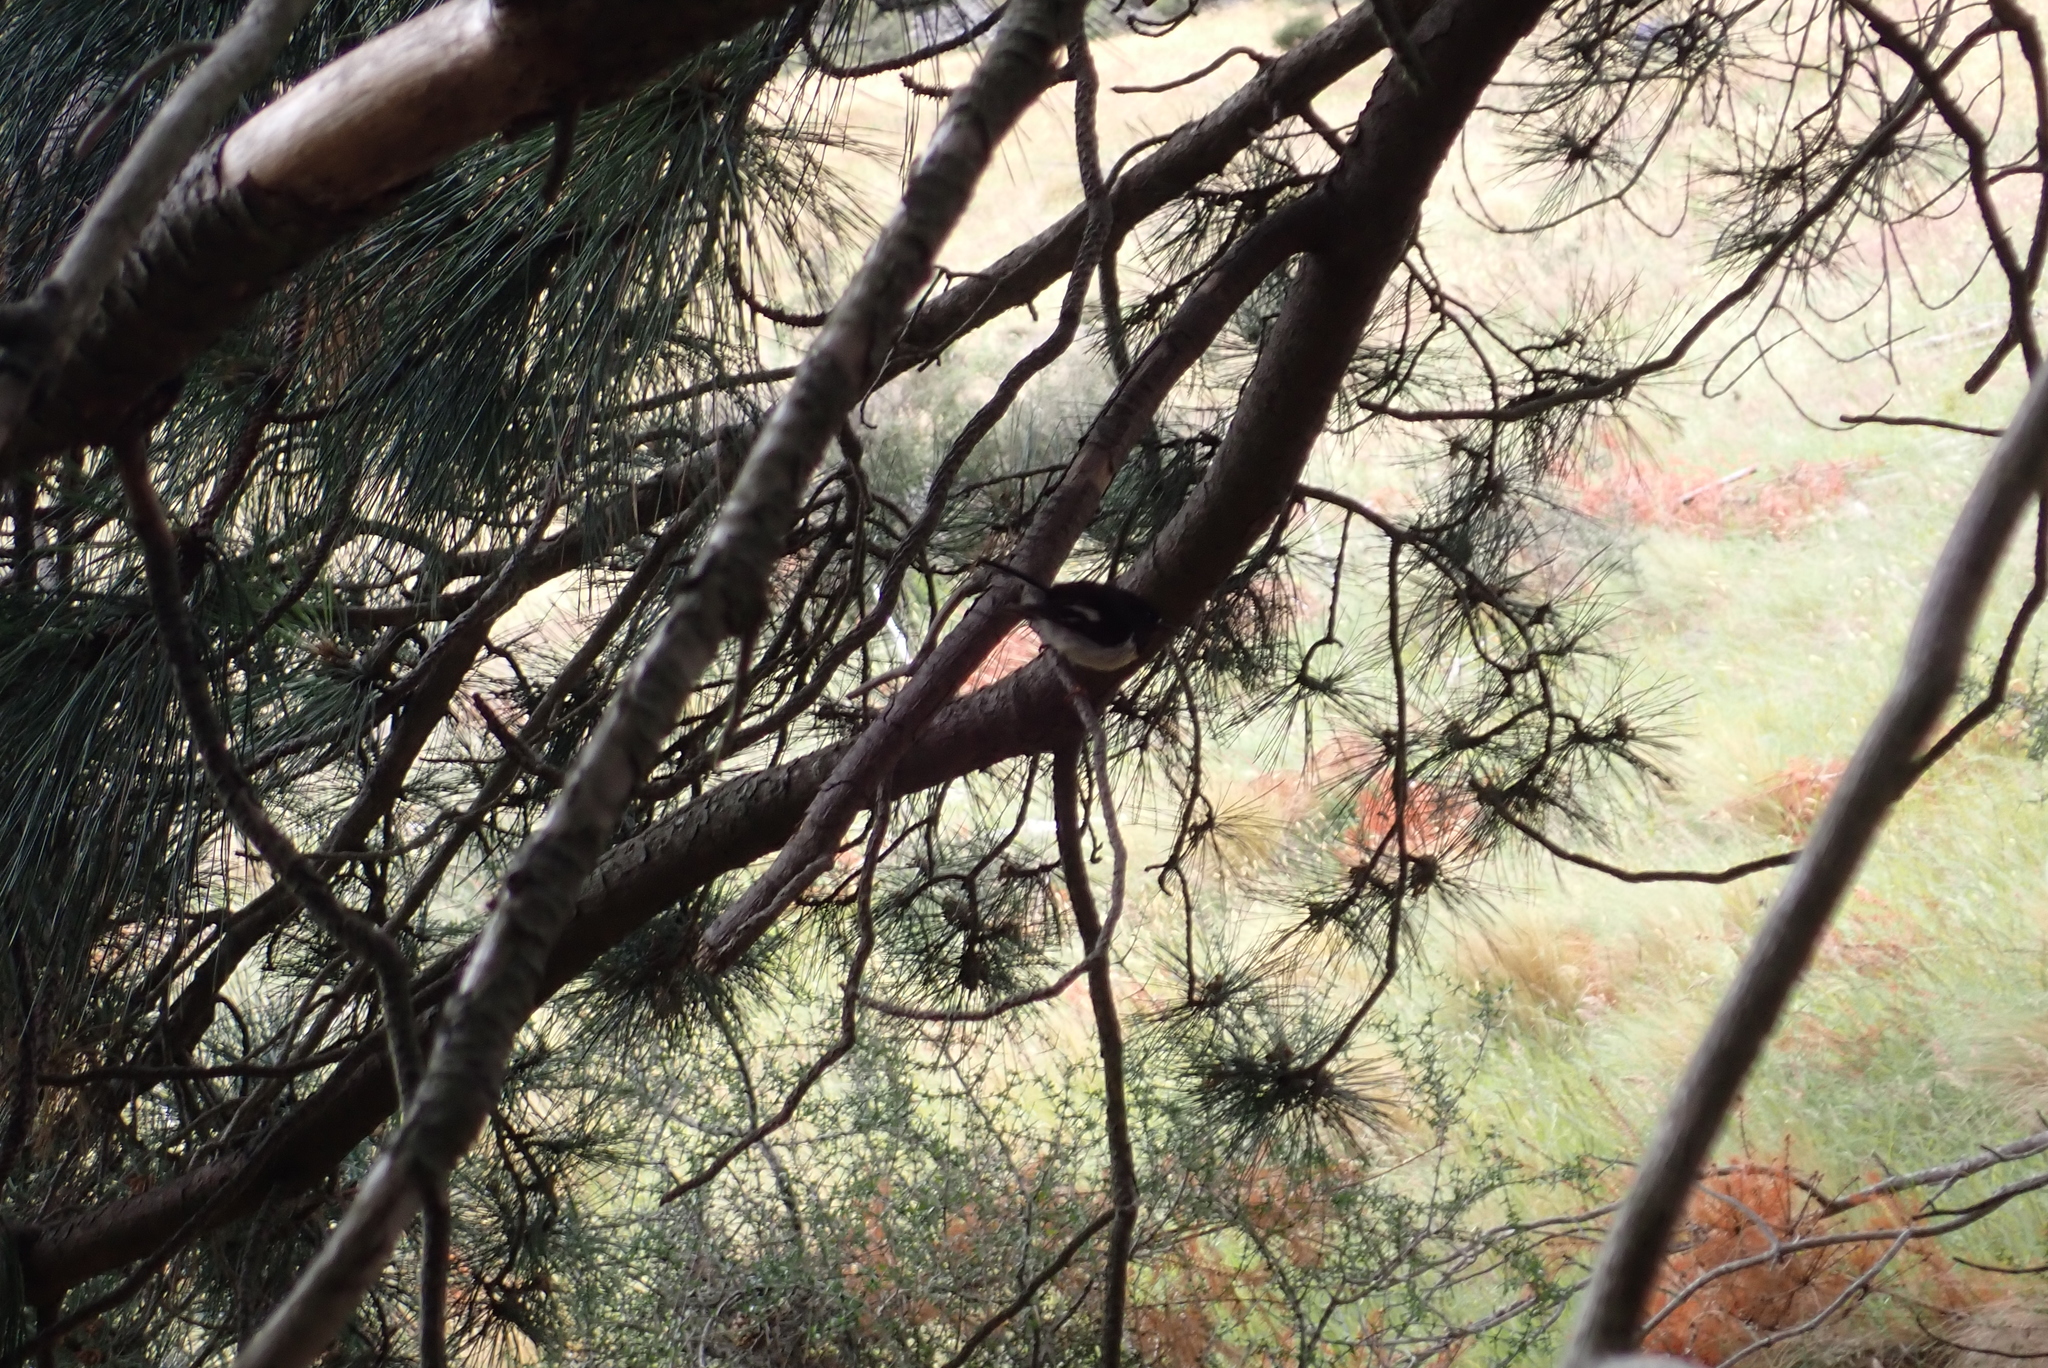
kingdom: Animalia
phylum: Chordata
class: Aves
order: Passeriformes
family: Petroicidae
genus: Petroica
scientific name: Petroica macrocephala
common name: Tomtit
